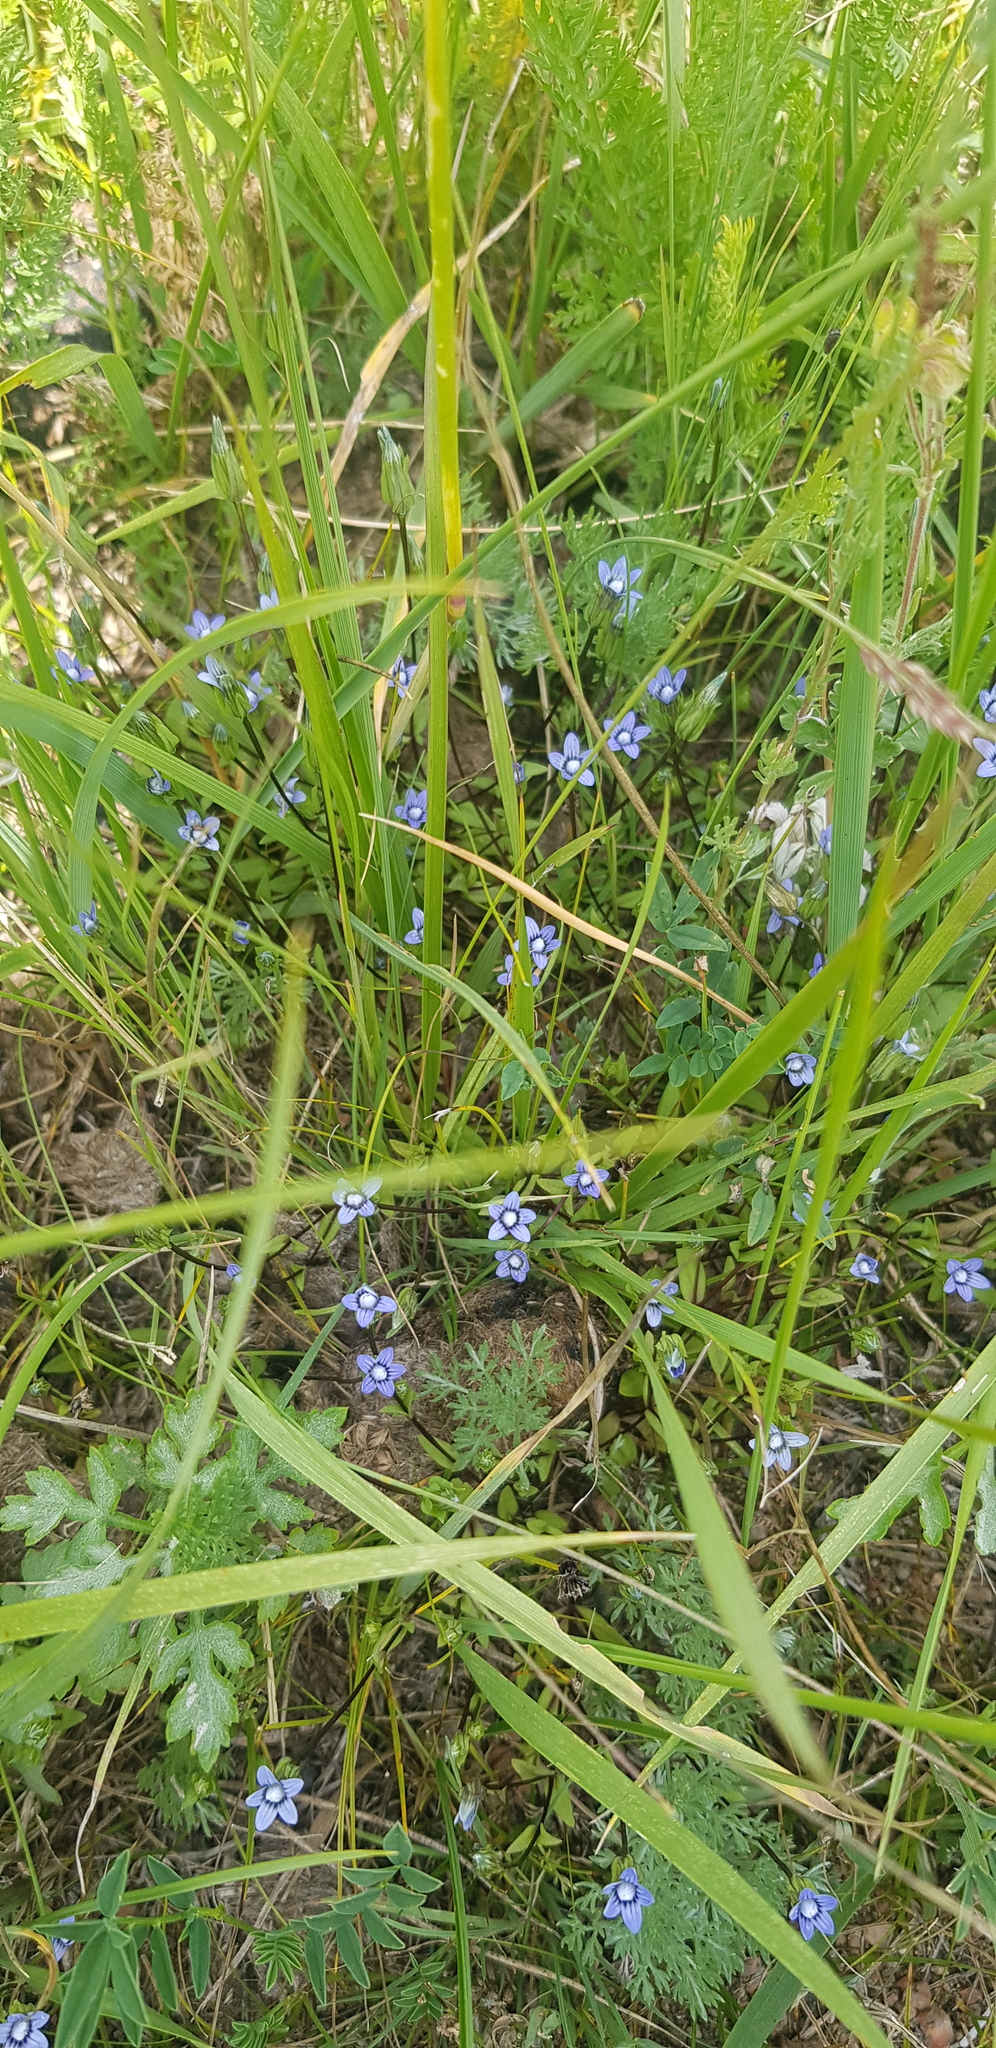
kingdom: Plantae
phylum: Tracheophyta
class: Liliopsida
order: Poales
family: Poaceae
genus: Leymus
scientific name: Leymus chinensis
